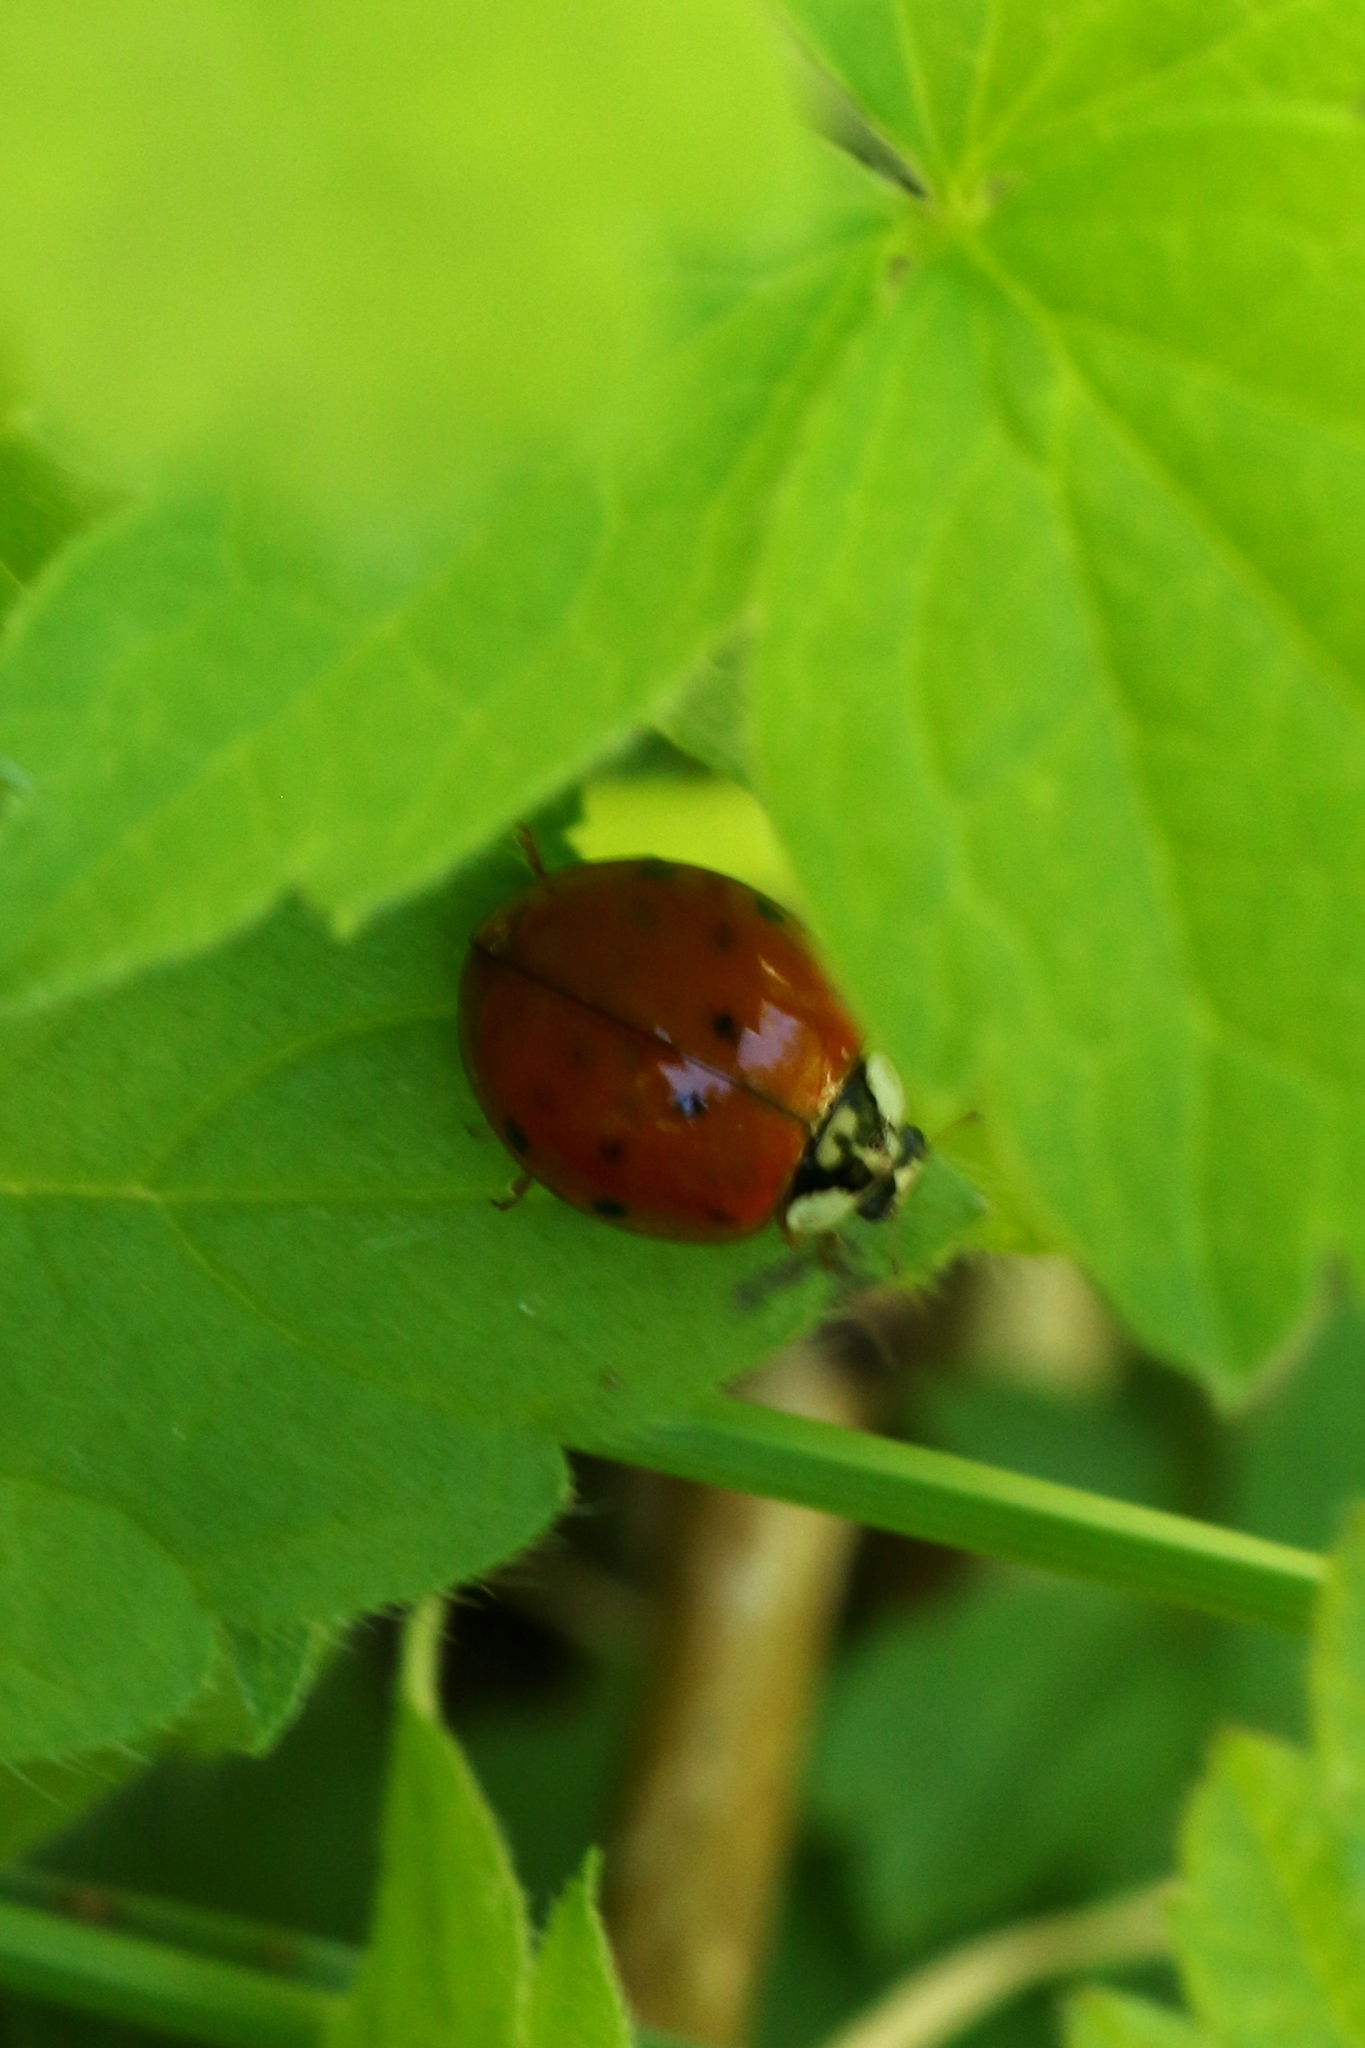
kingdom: Animalia
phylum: Arthropoda
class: Insecta
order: Coleoptera
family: Coccinellidae
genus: Harmonia
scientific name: Harmonia axyridis
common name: Harlequin ladybird
